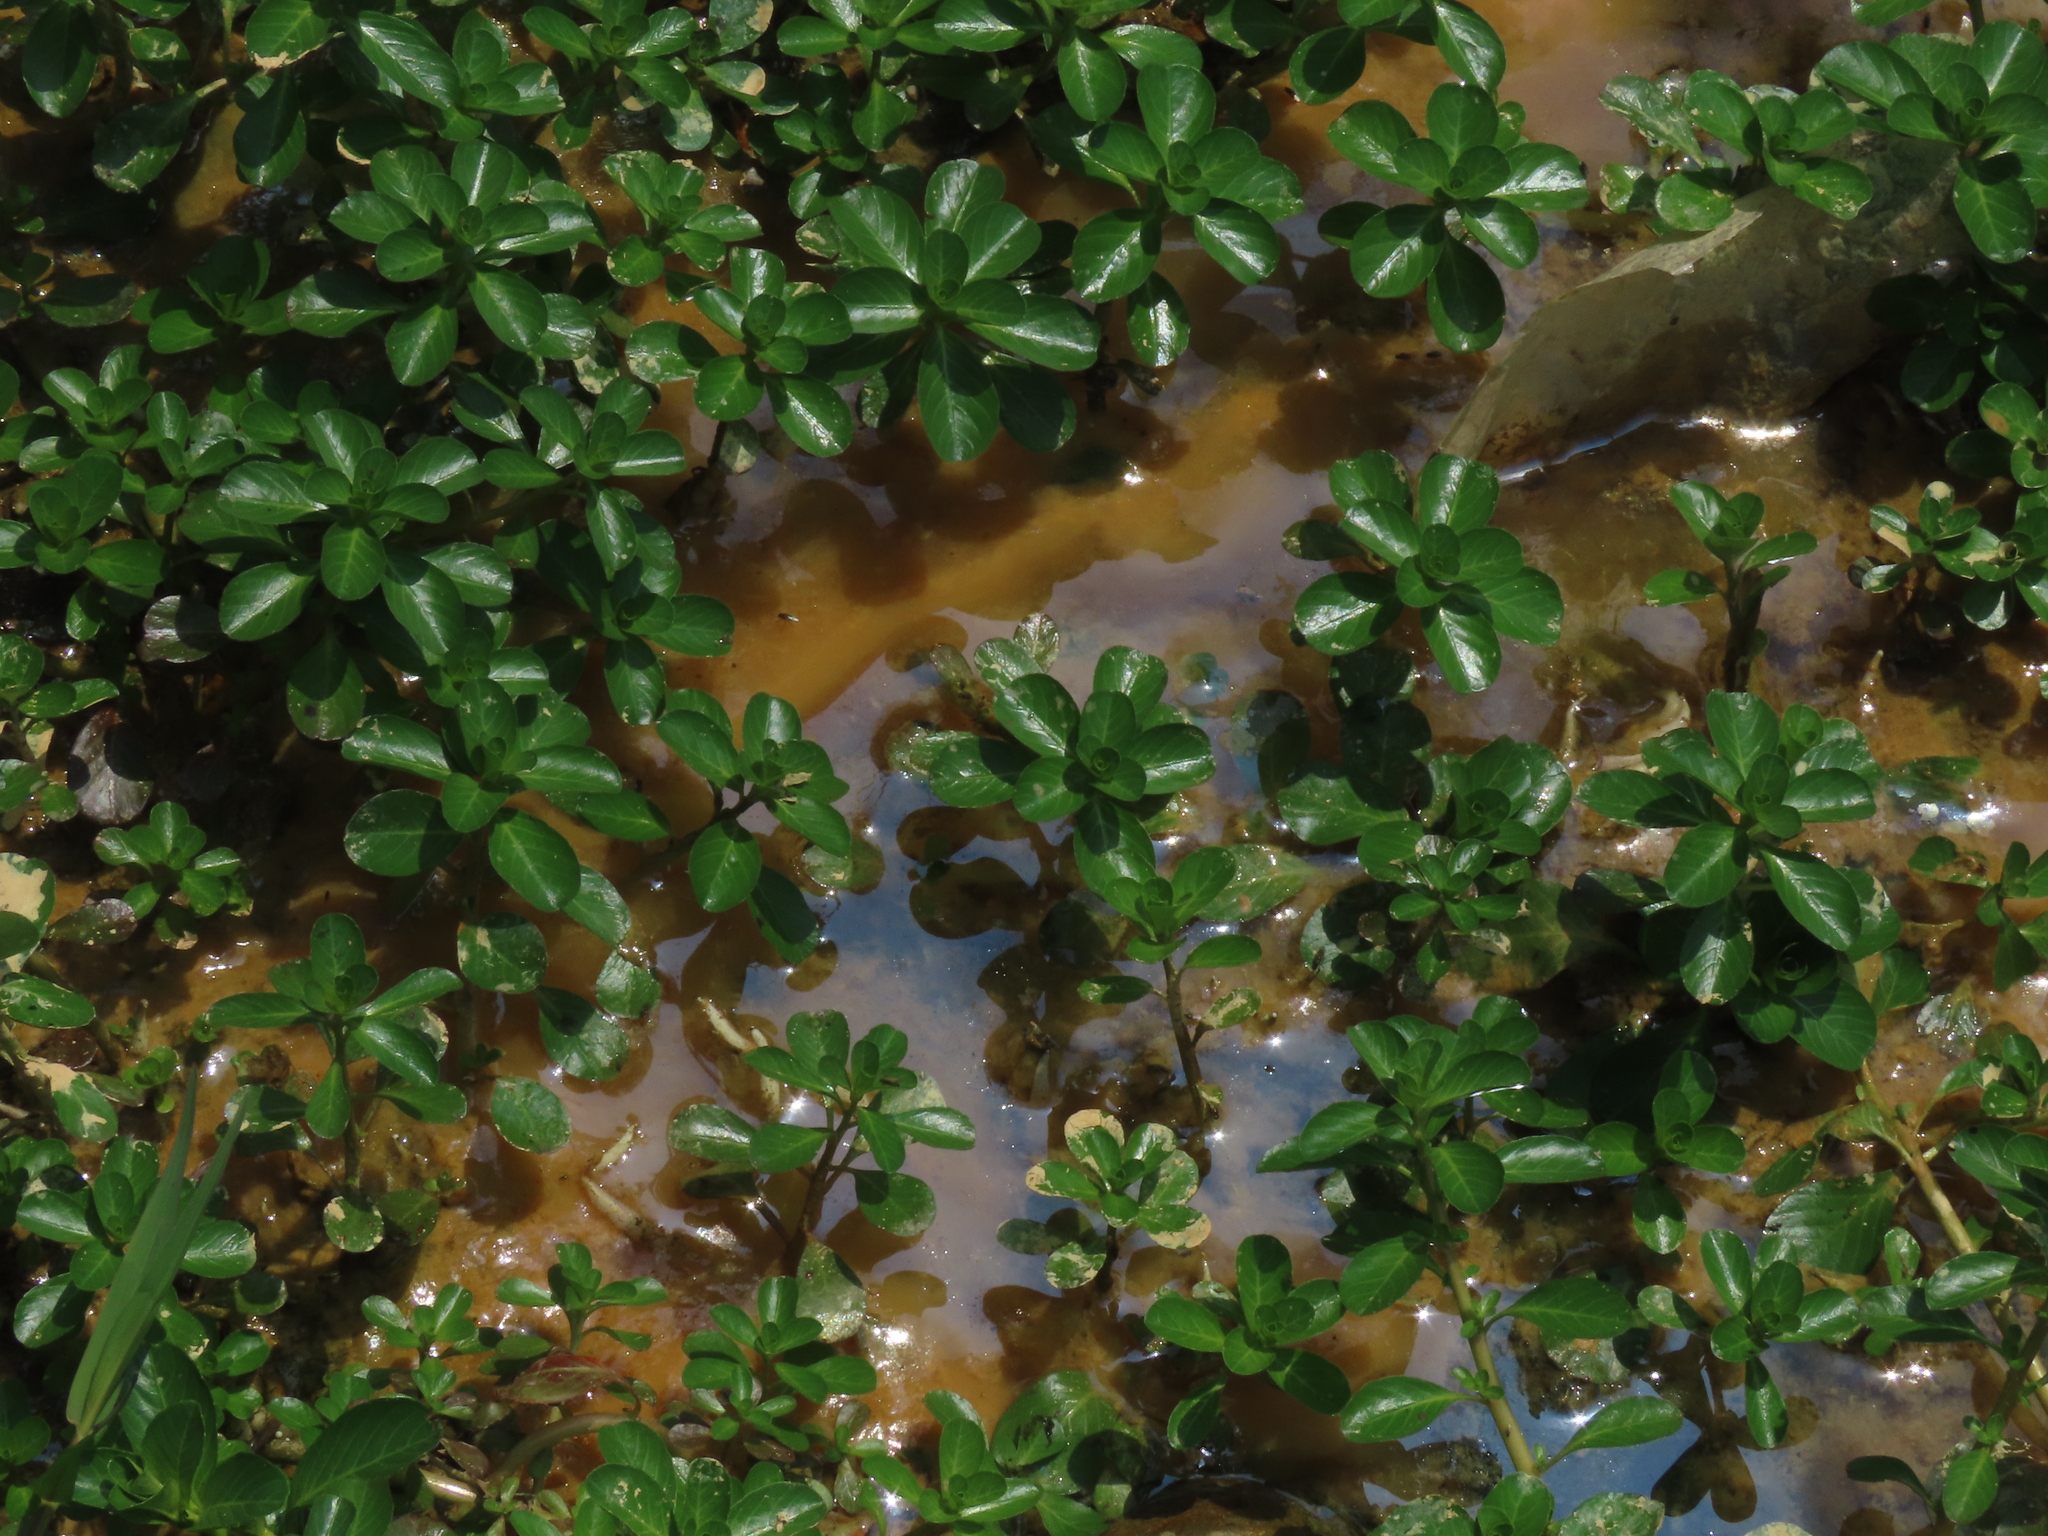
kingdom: Plantae
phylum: Tracheophyta
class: Magnoliopsida
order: Myrtales
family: Onagraceae
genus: Ludwigia
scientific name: Ludwigia taiwanensis
